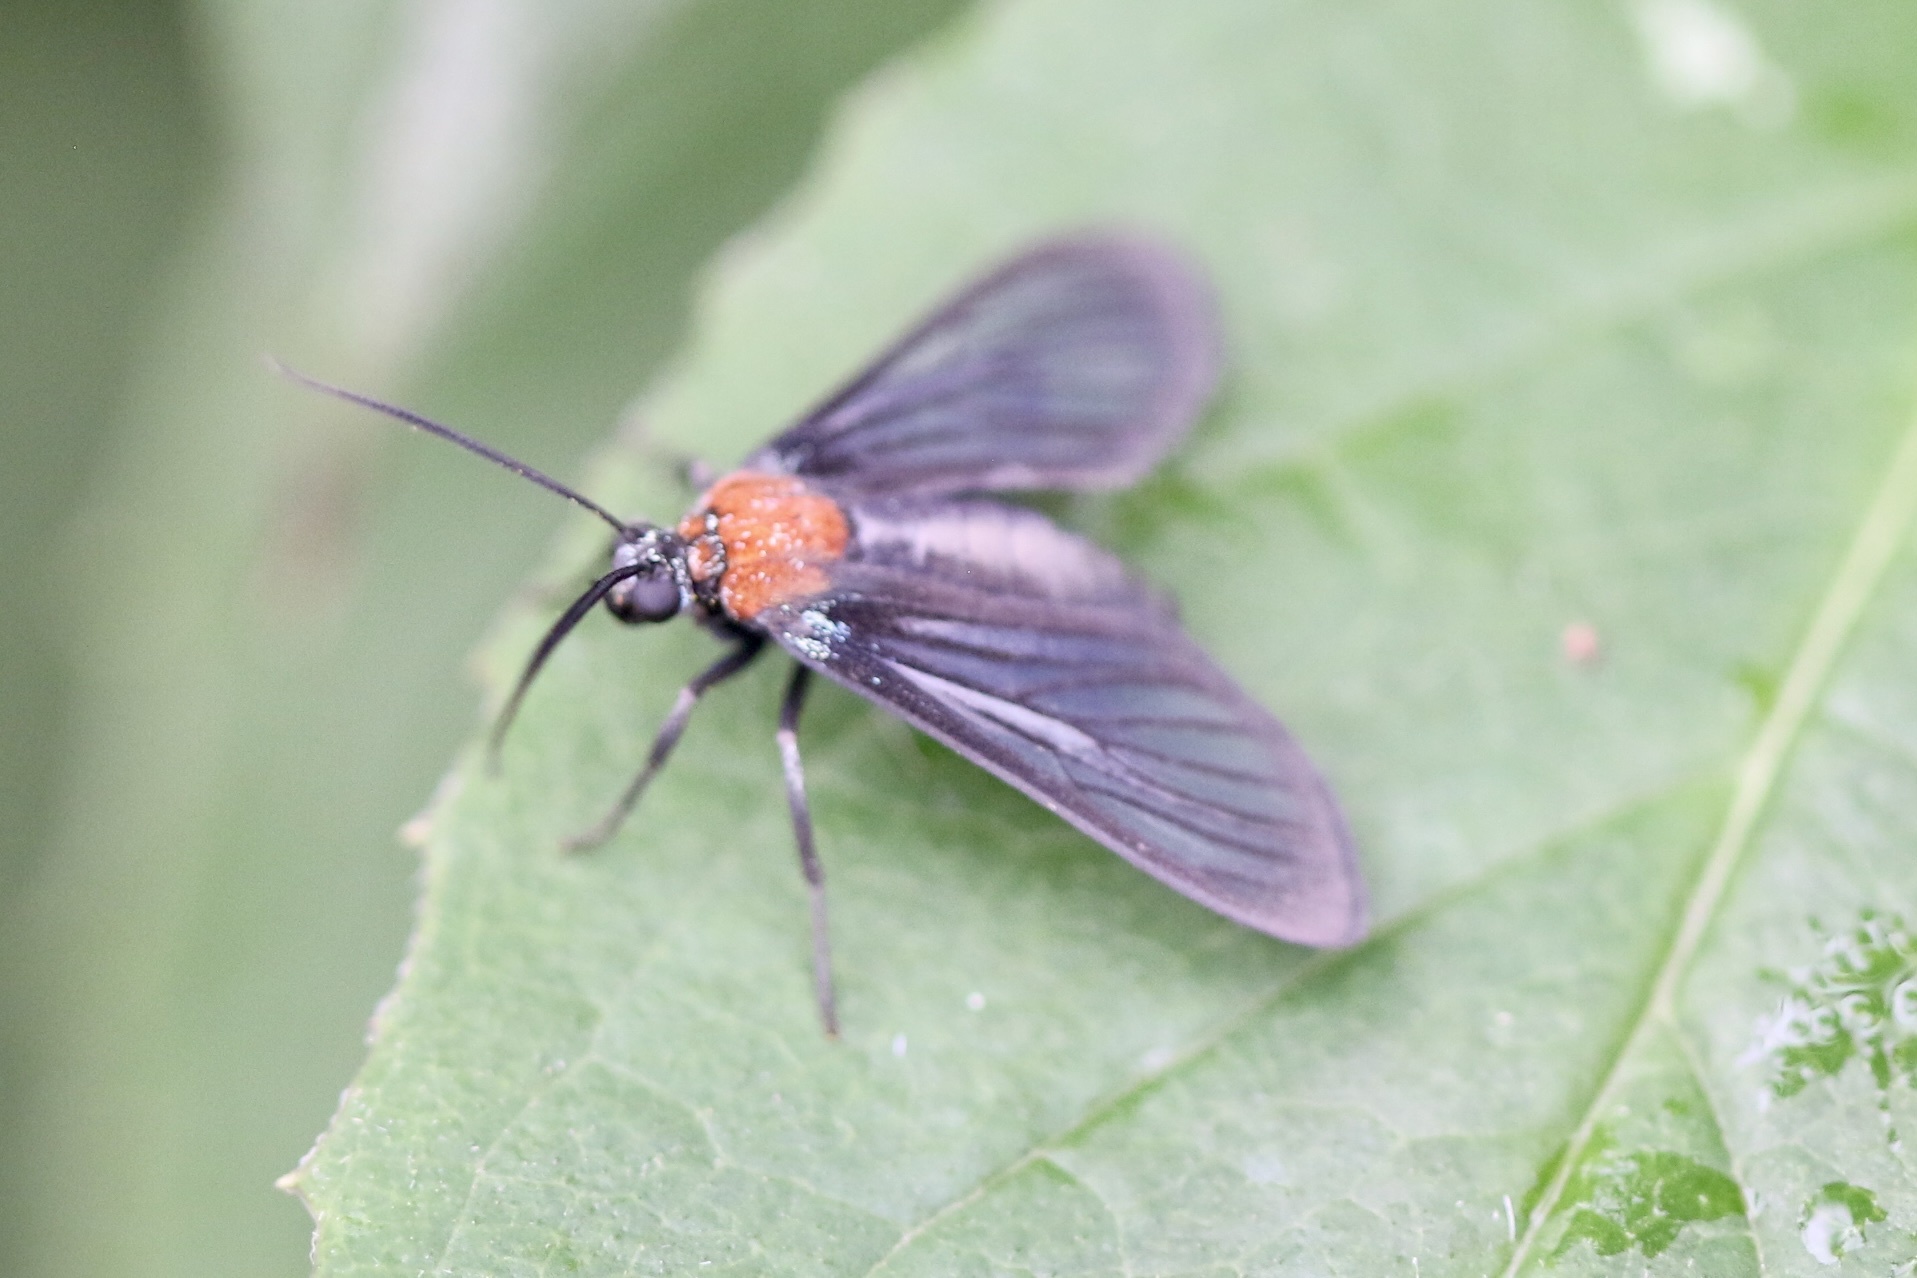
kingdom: Animalia
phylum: Arthropoda
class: Insecta
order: Lepidoptera
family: Erebidae
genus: Saurita
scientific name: Saurita temenus
